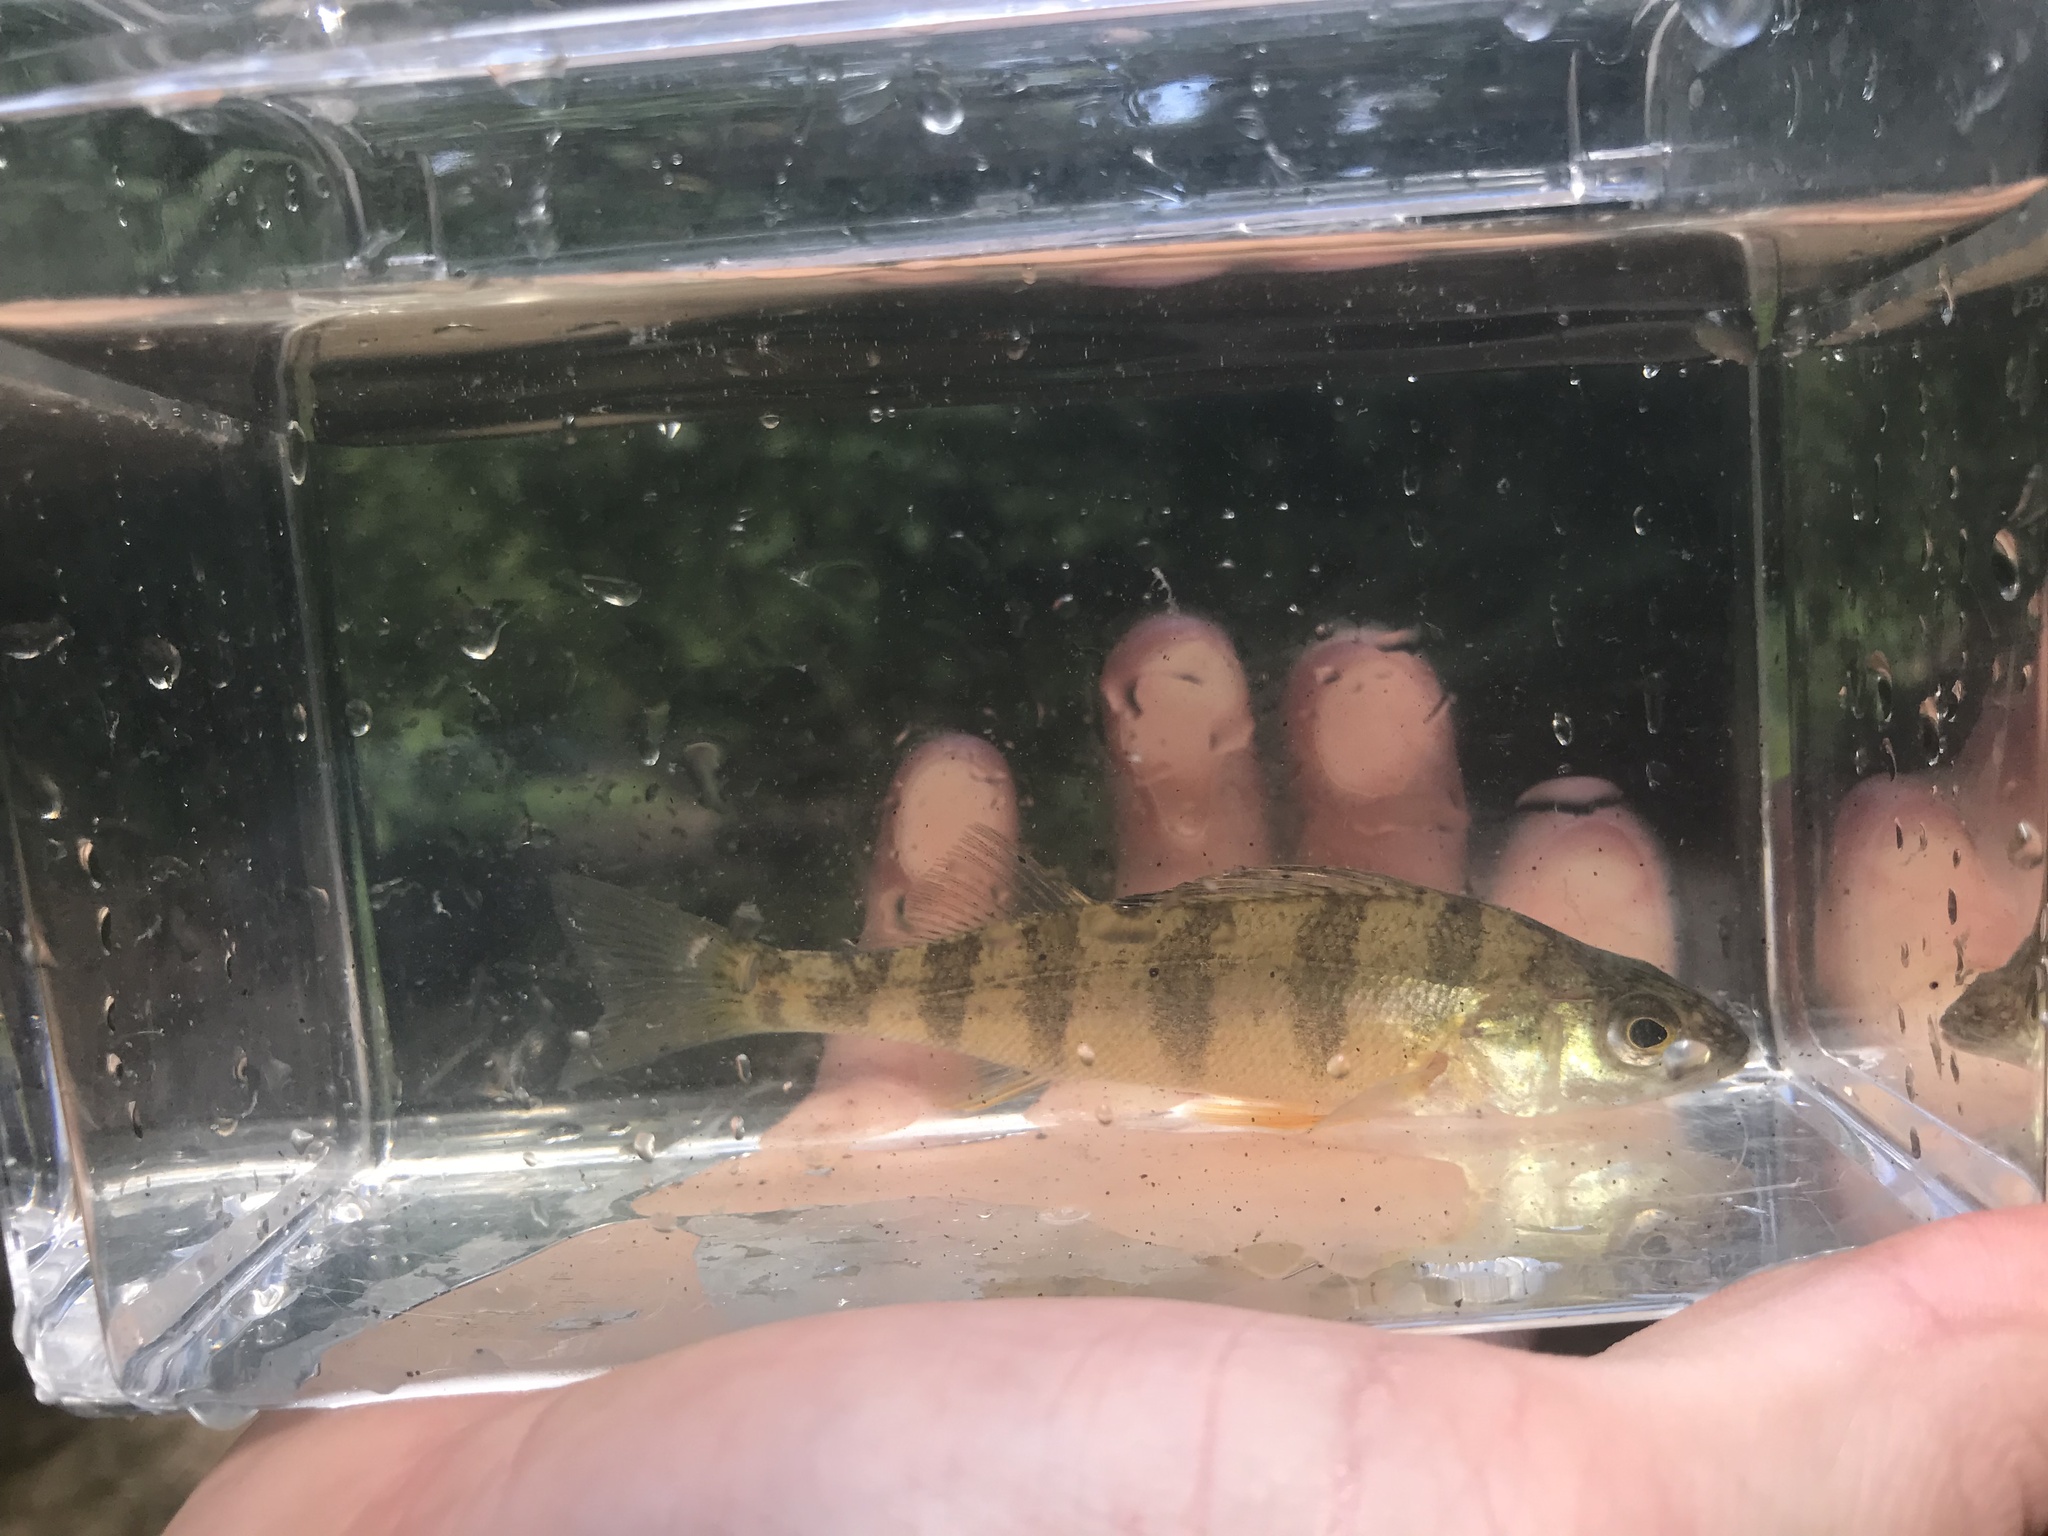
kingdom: Animalia
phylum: Chordata
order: Perciformes
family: Percidae
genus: Perca
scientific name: Perca flavescens
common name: Yellow perch
